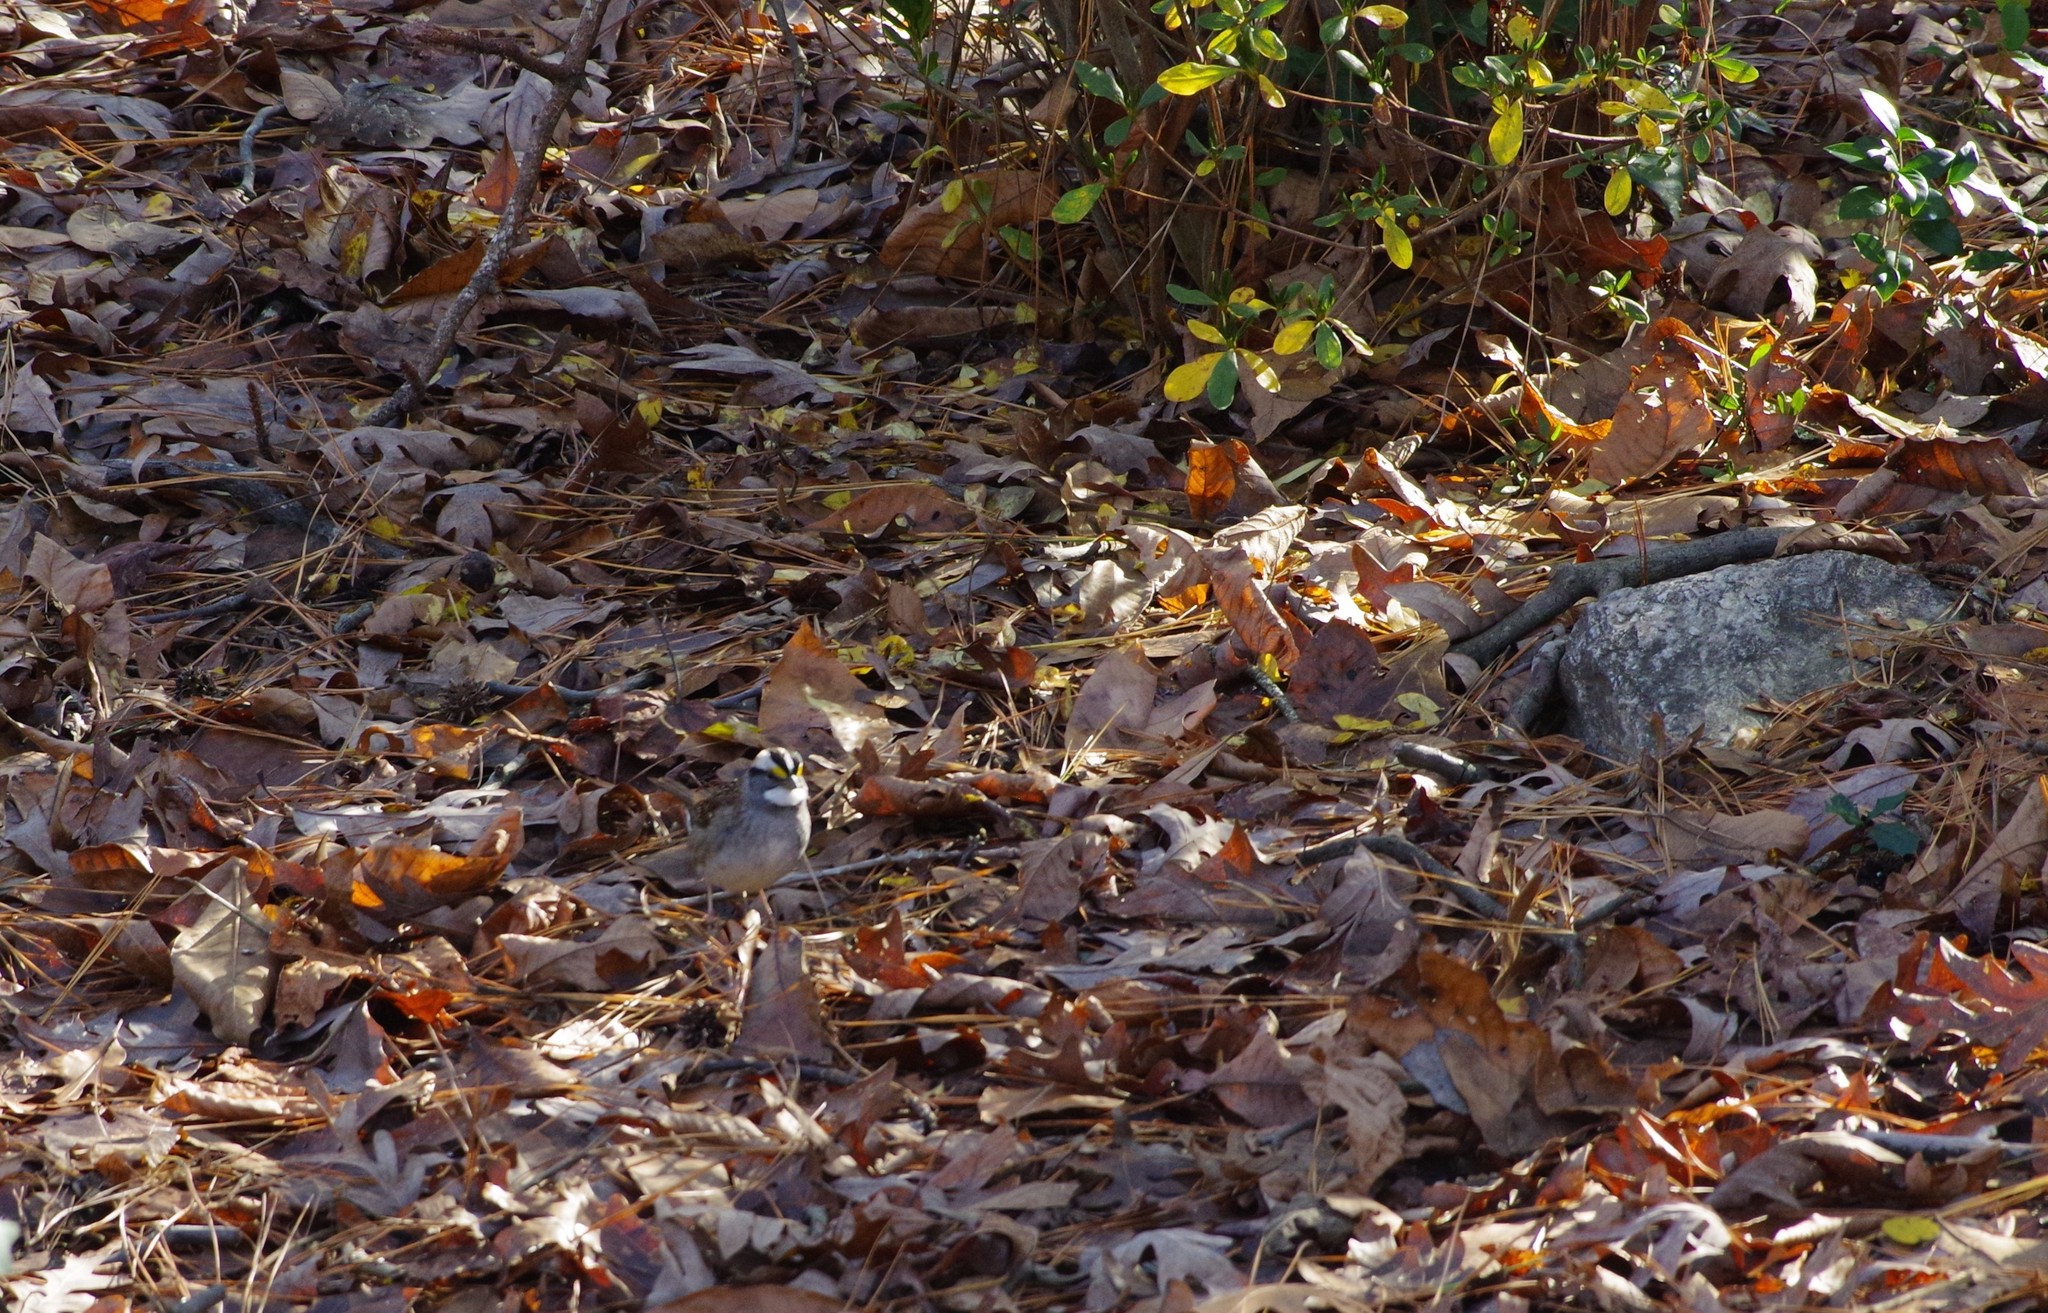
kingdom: Animalia
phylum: Chordata
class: Aves
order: Passeriformes
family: Passerellidae
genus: Zonotrichia
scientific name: Zonotrichia albicollis
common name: White-throated sparrow
